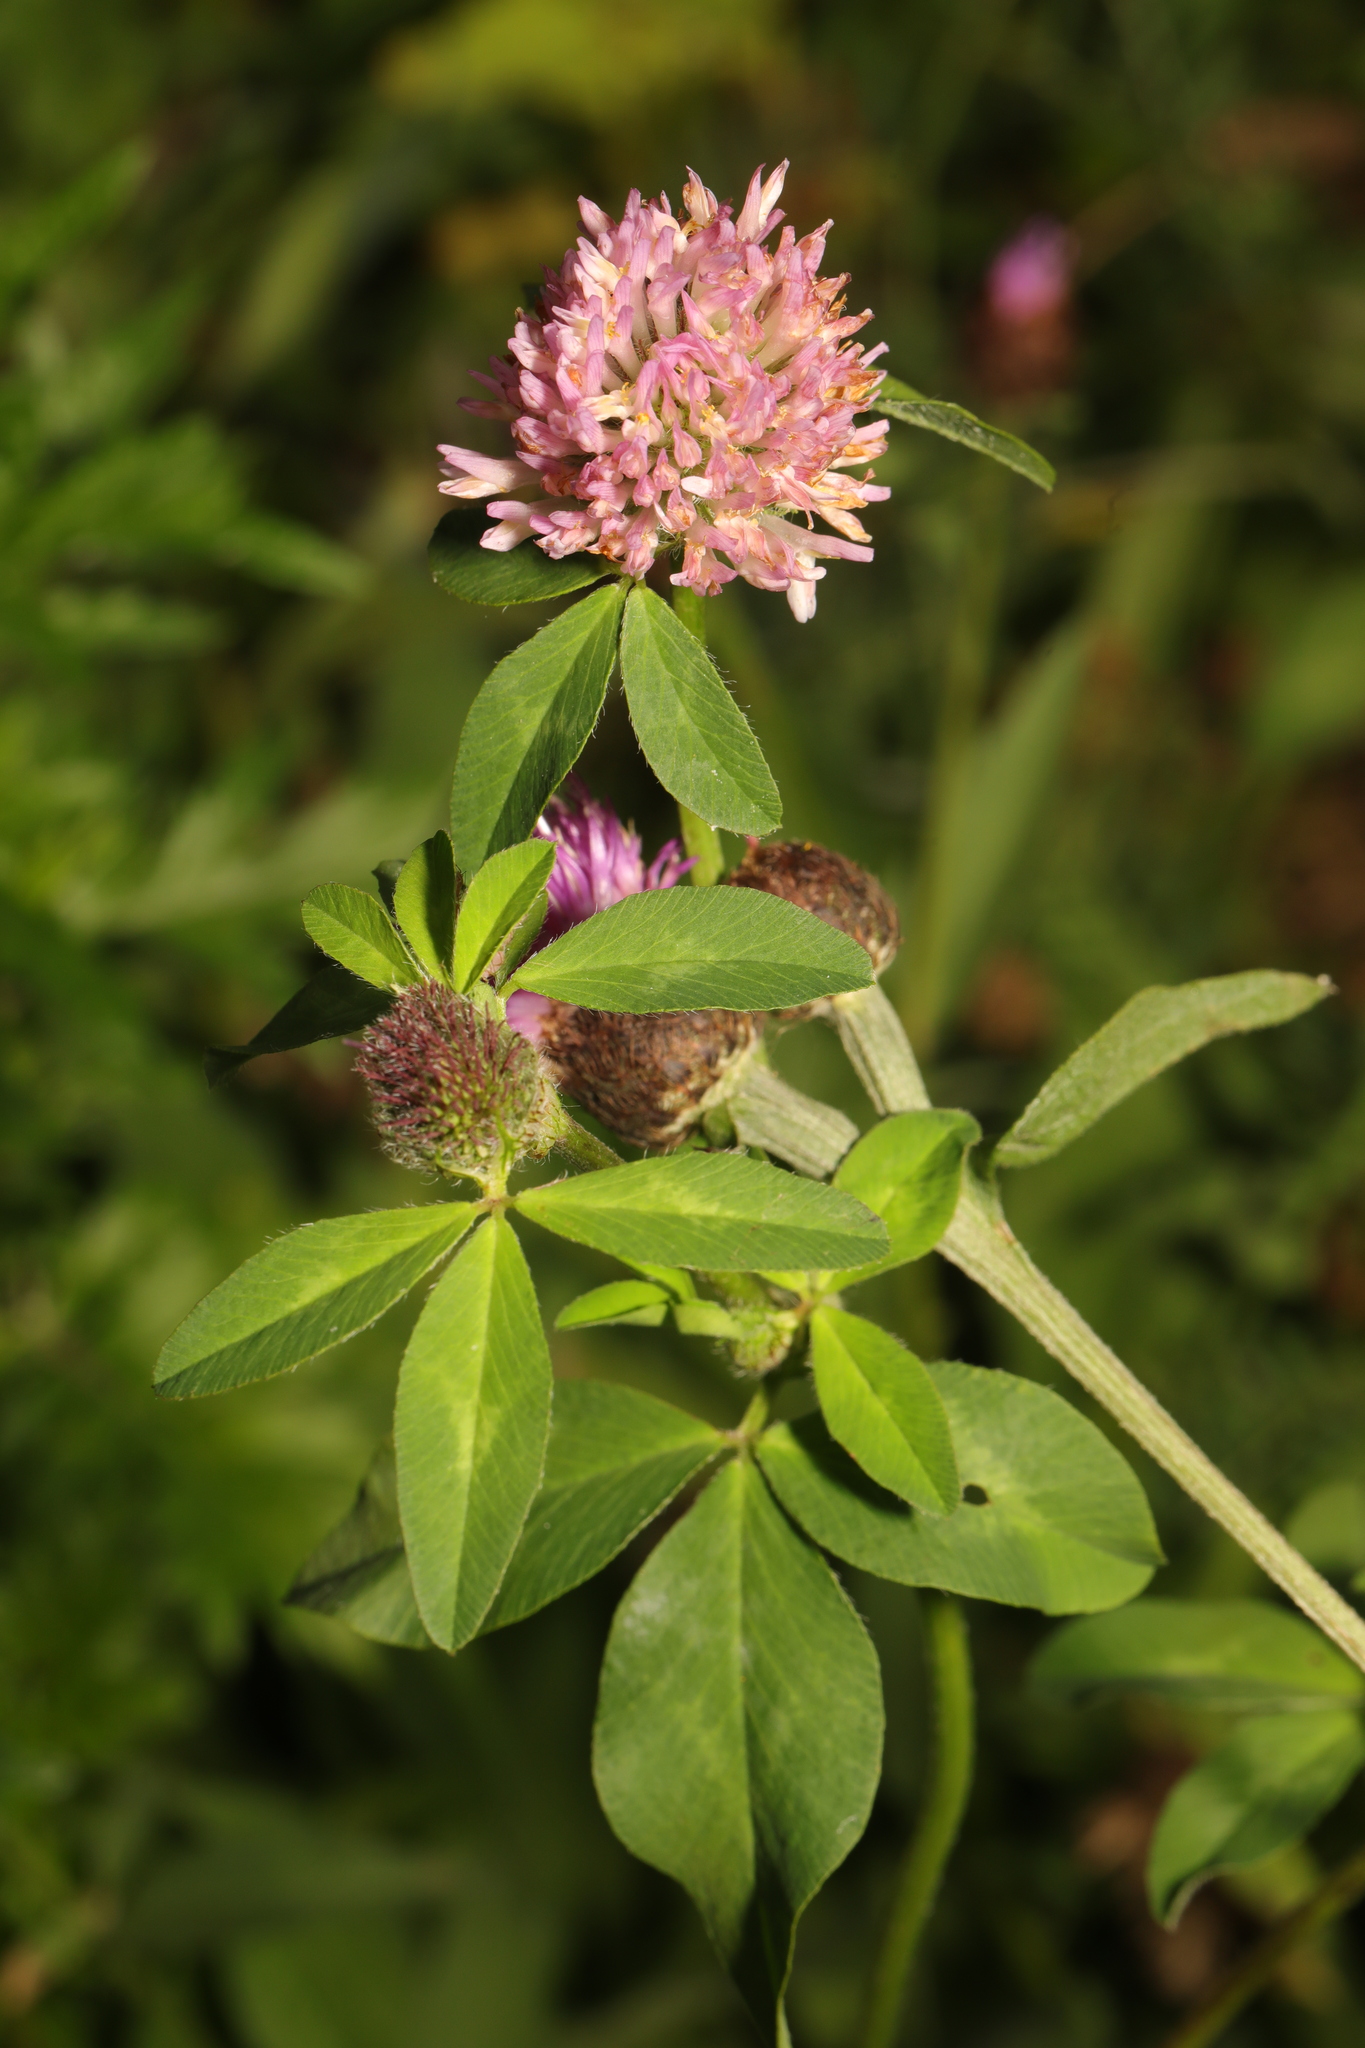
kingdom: Plantae
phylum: Tracheophyta
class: Magnoliopsida
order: Fabales
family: Fabaceae
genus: Trifolium
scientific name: Trifolium pratense
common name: Red clover
